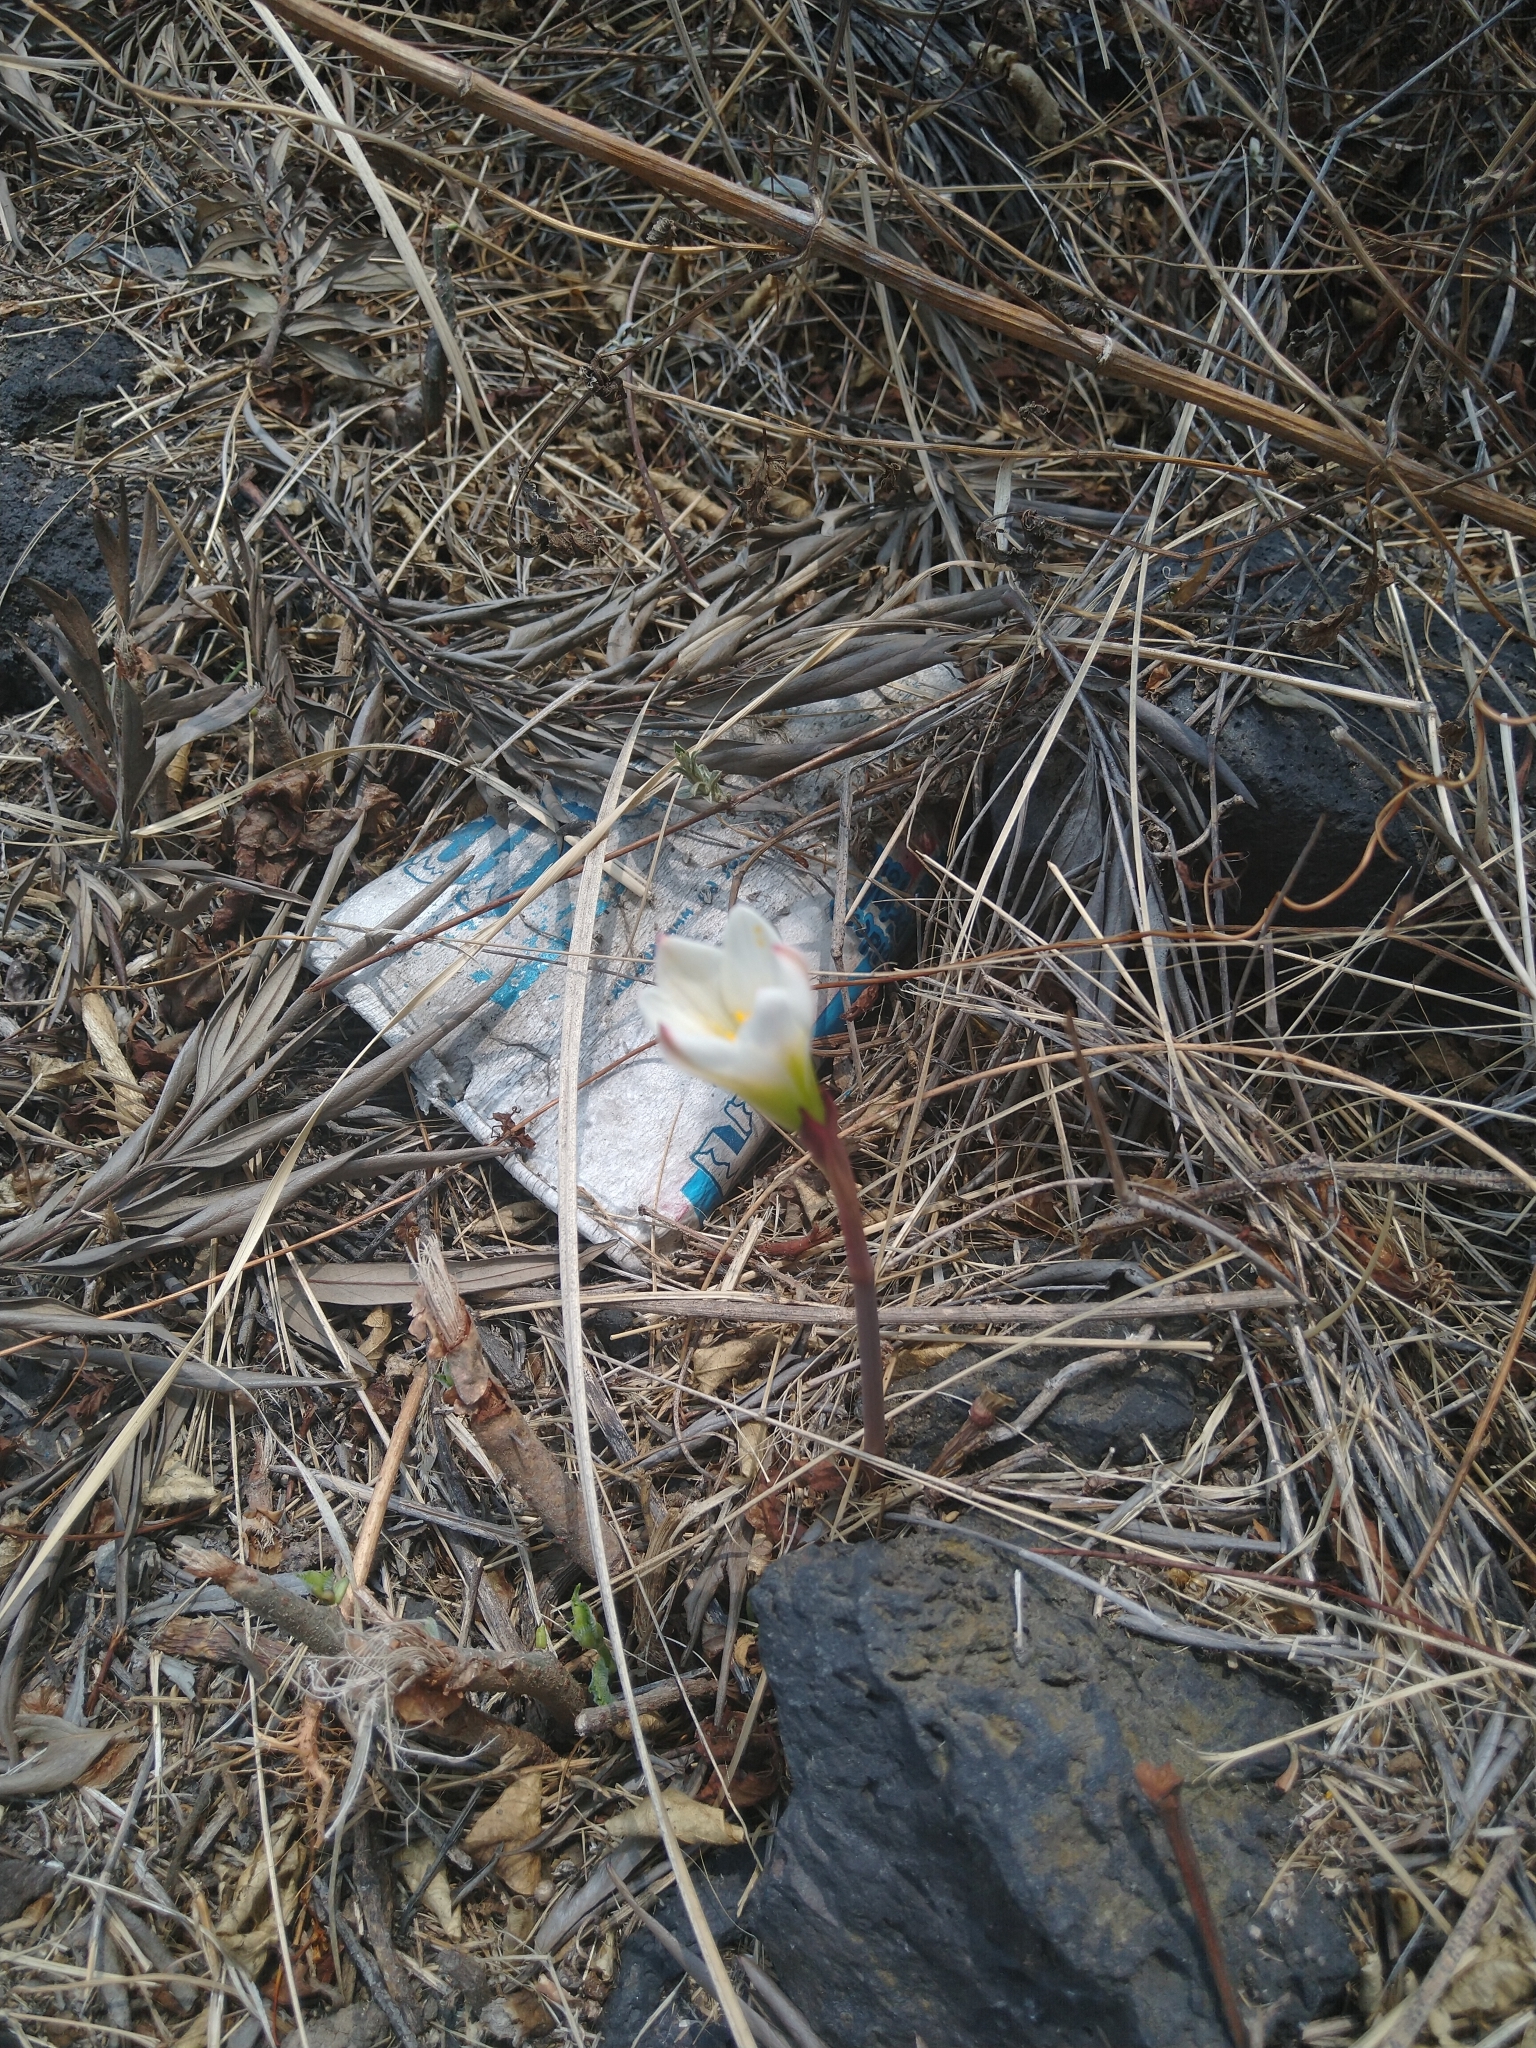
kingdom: Plantae
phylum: Tracheophyta
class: Liliopsida
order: Asparagales
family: Amaryllidaceae
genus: Zephyranthes
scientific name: Zephyranthes alba
